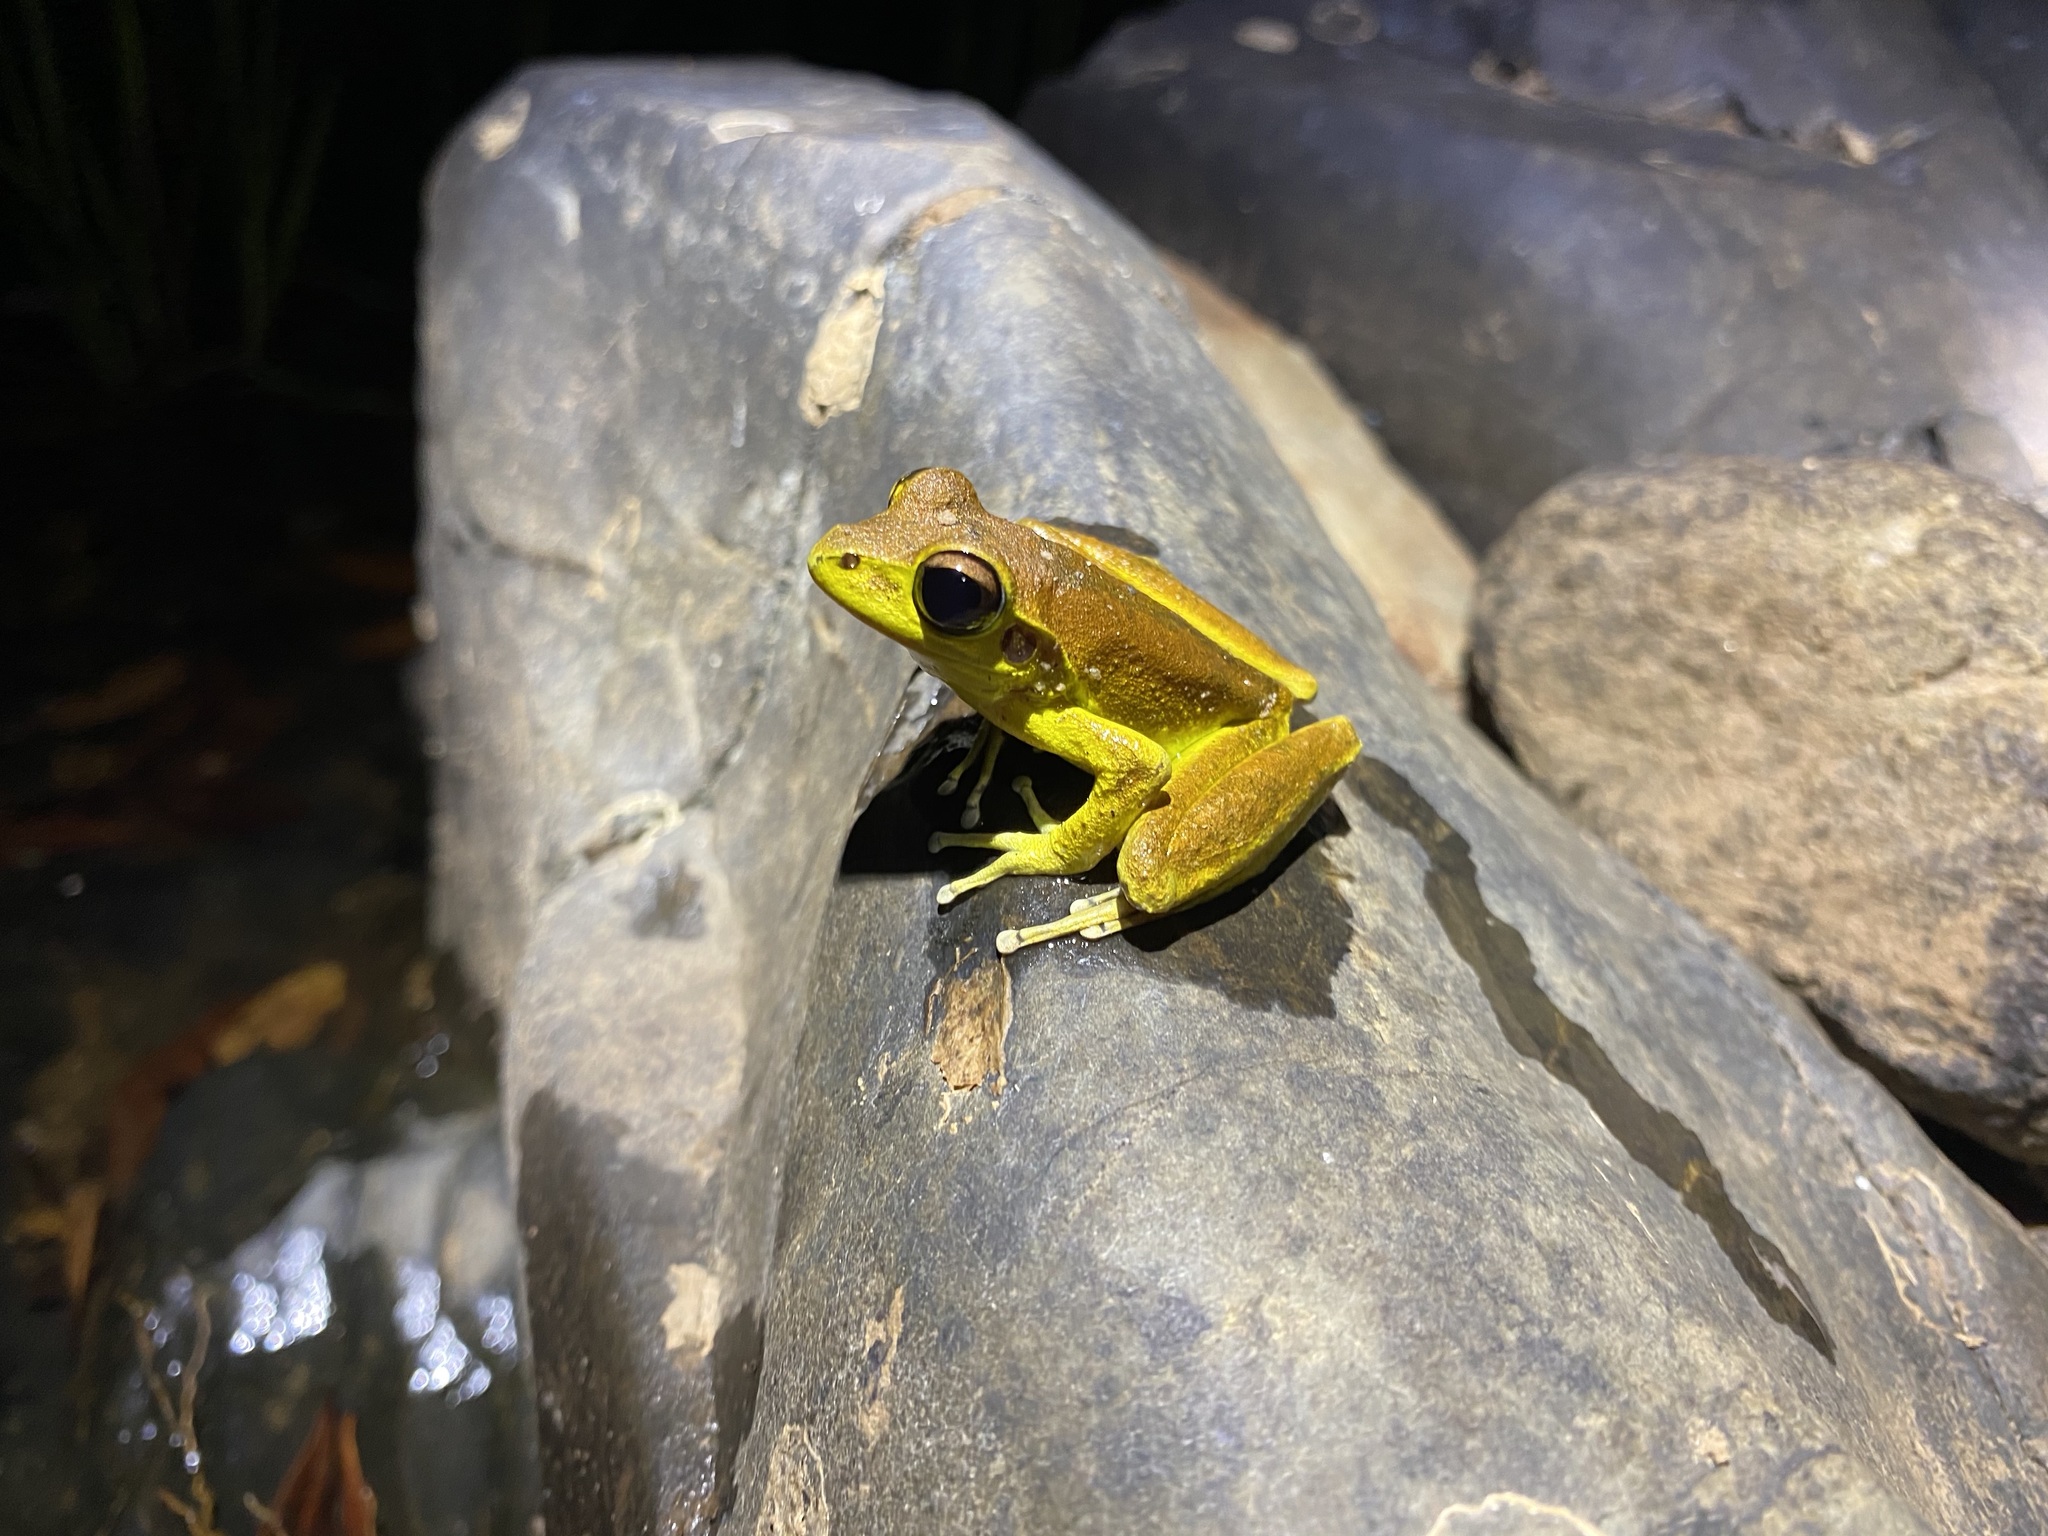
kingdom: Animalia
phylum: Chordata
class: Amphibia
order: Anura
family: Hylidae
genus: Ranoidea
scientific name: Ranoidea
